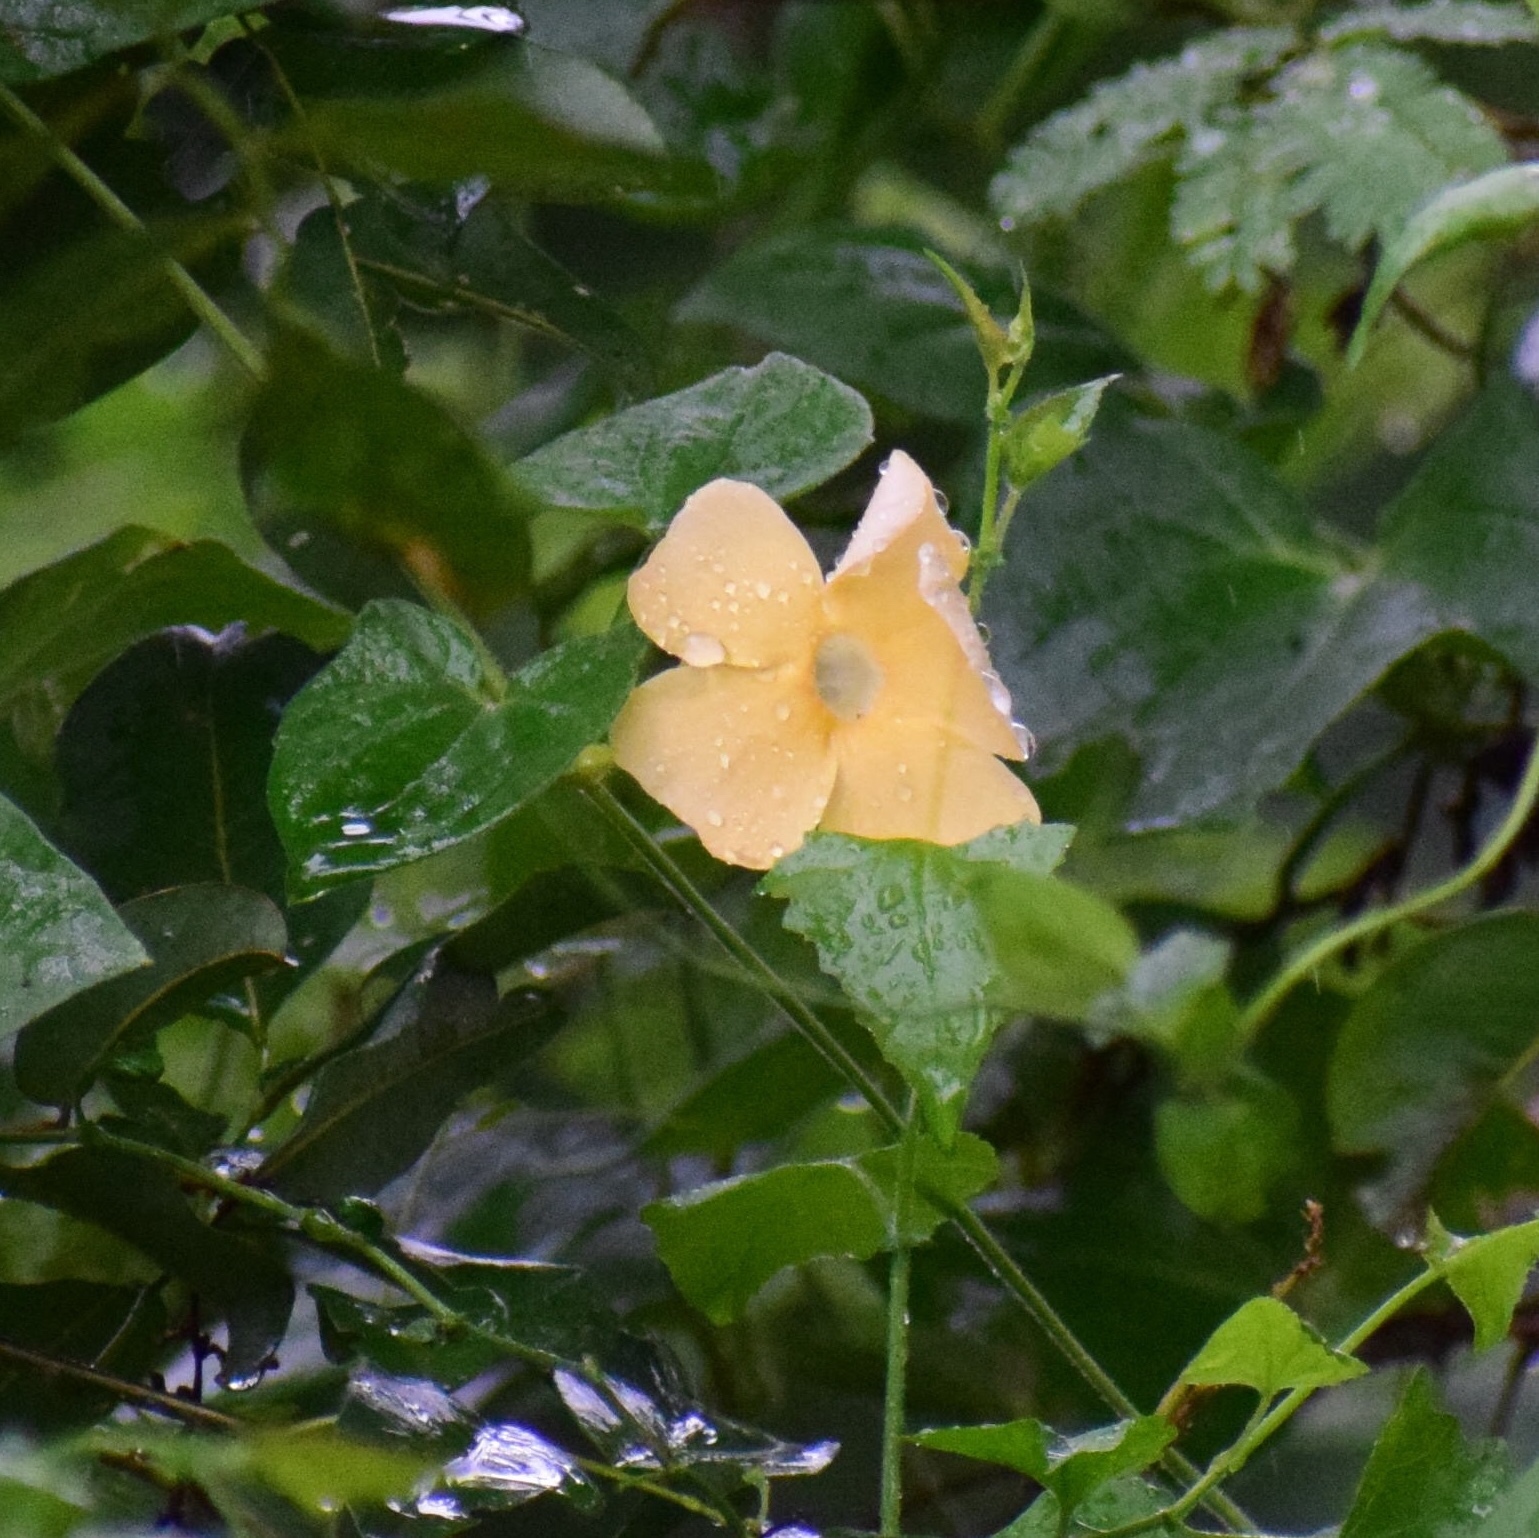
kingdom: Plantae
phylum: Tracheophyta
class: Magnoliopsida
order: Lamiales
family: Acanthaceae
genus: Thunbergia
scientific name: Thunbergia alata
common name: Blackeyed susan vine
